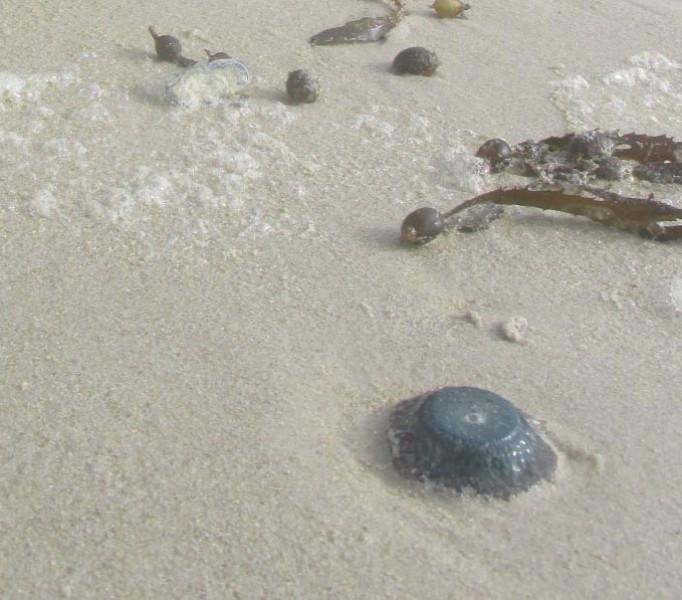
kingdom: Animalia
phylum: Cnidaria
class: Hydrozoa
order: Anthoathecata
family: Porpitidae
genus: Porpita
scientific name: Porpita porpita
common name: Blue button
